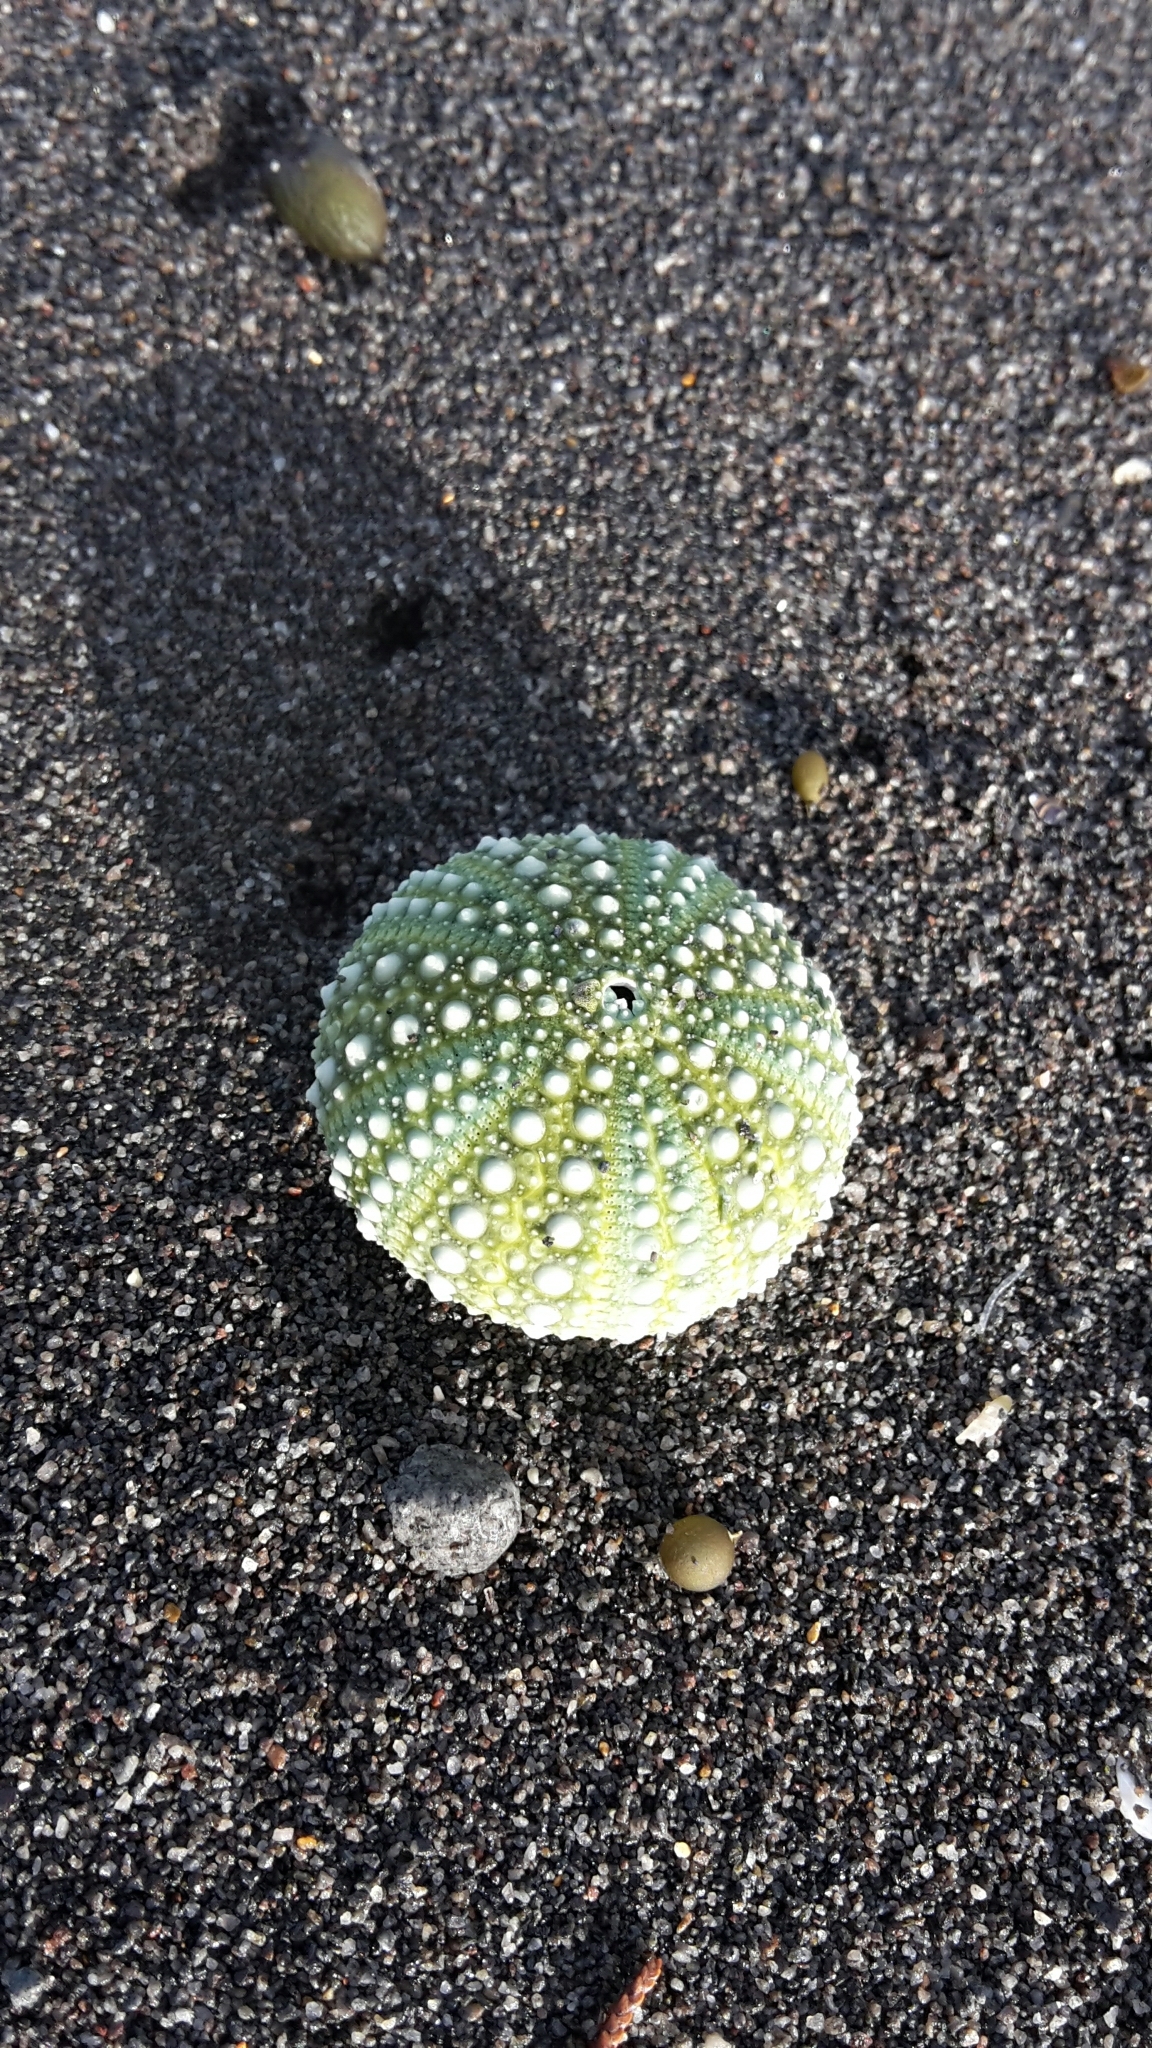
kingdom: Animalia
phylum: Echinodermata
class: Echinoidea
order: Camarodonta
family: Echinometridae
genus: Evechinus
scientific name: Evechinus chloroticus
